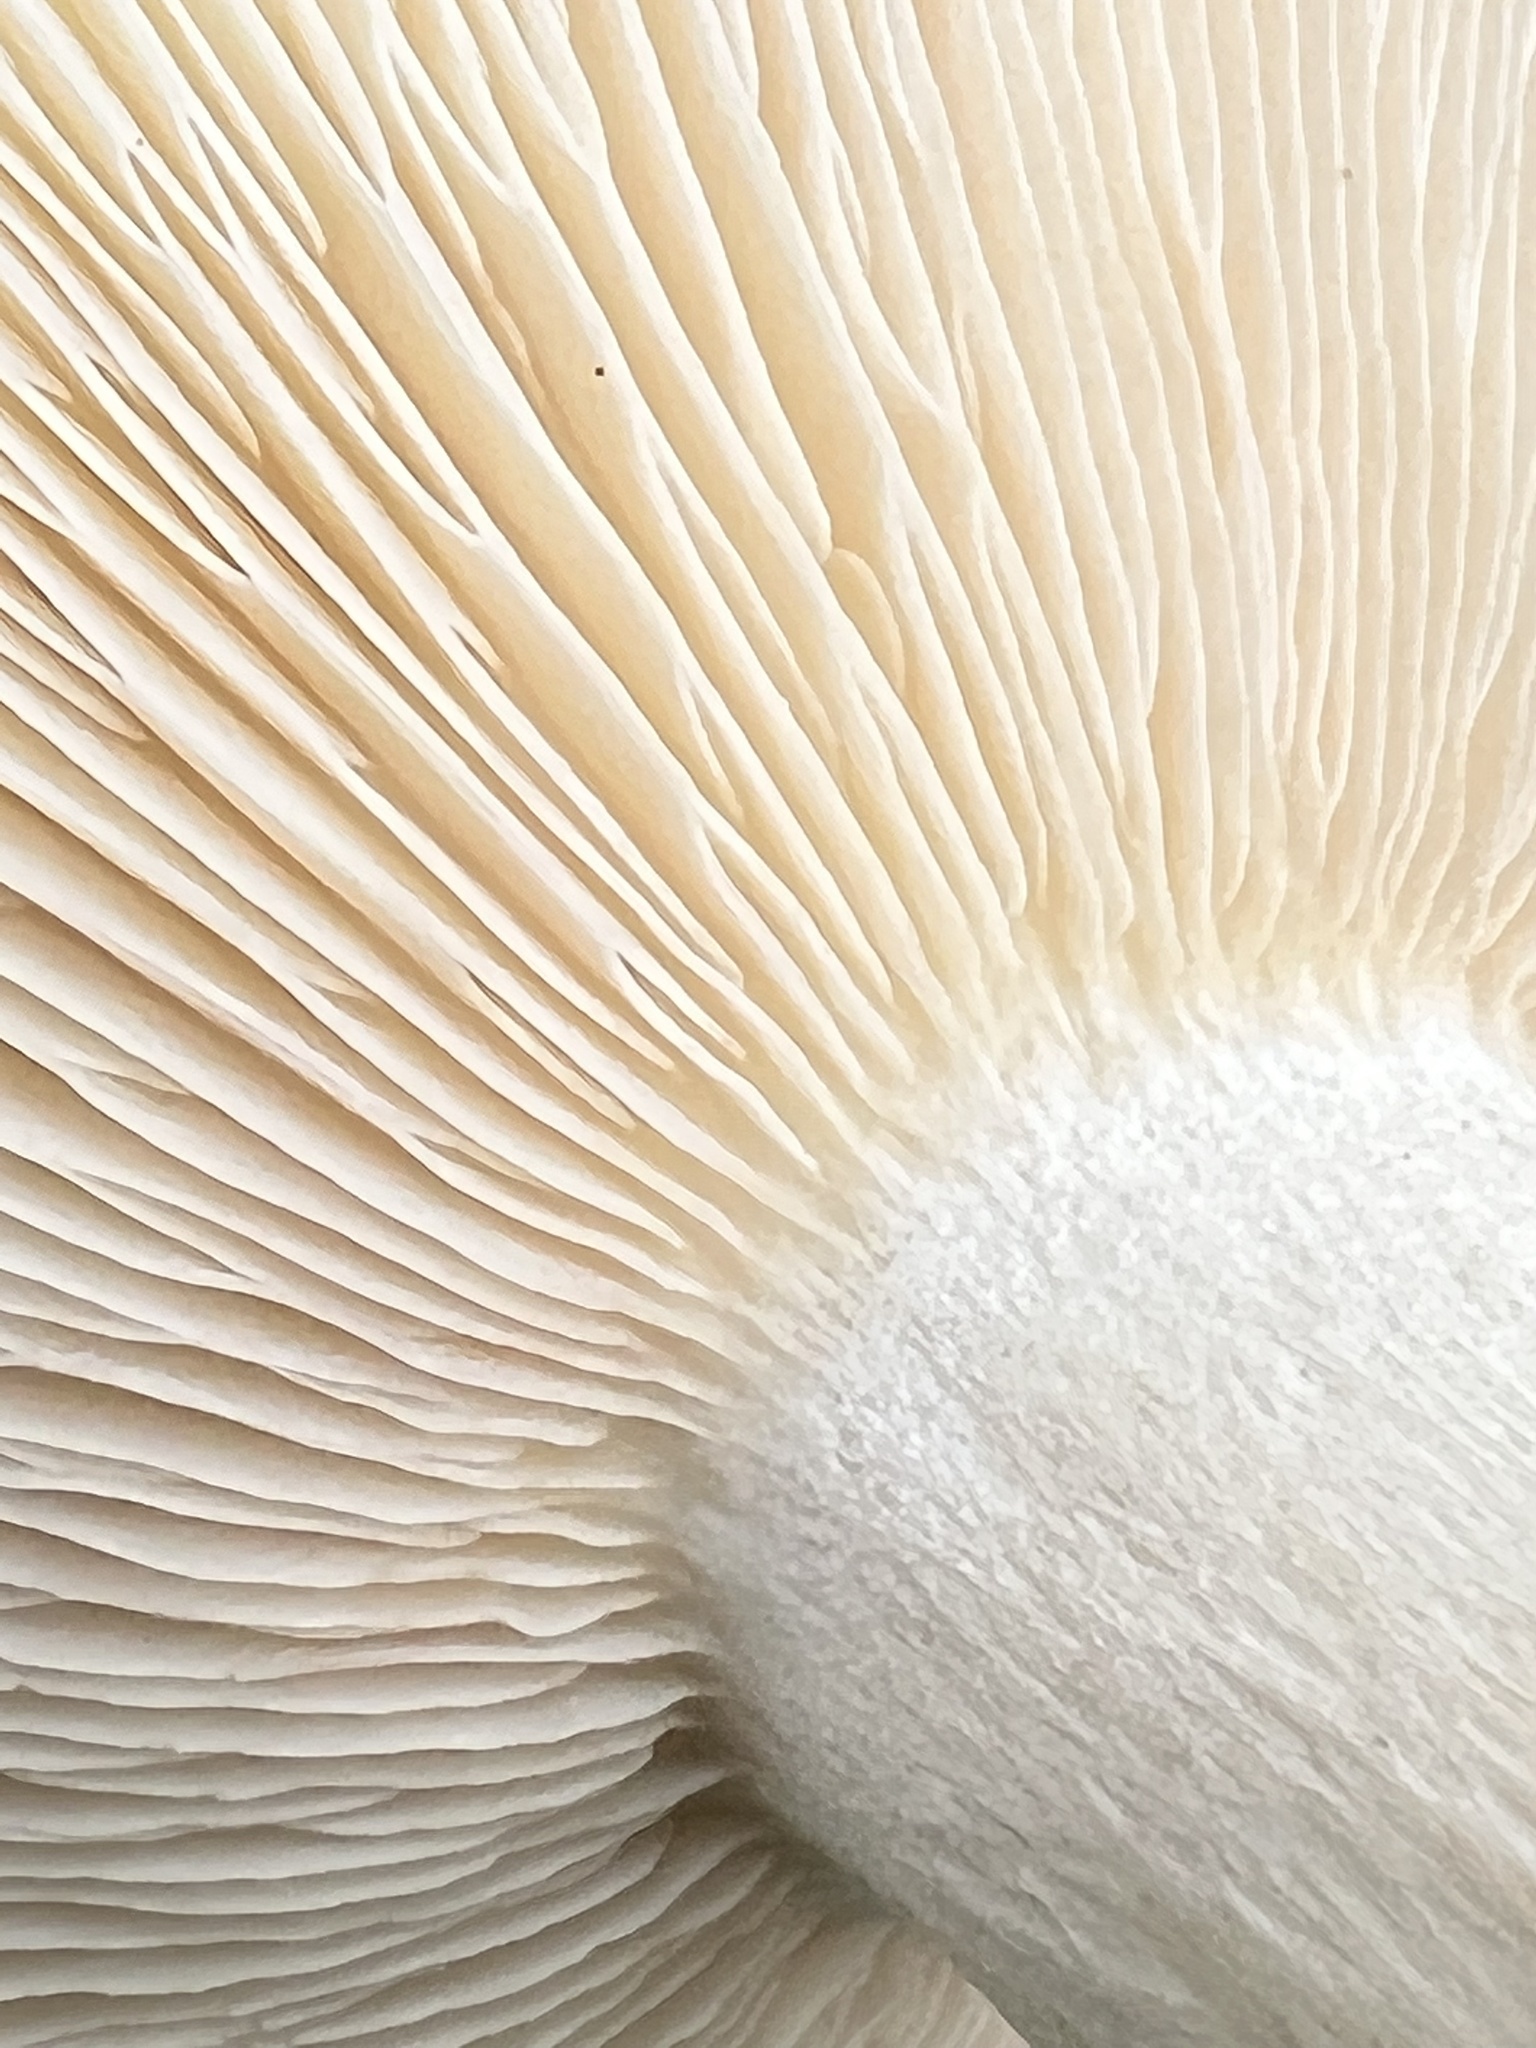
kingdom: Fungi
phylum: Basidiomycota
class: Agaricomycetes
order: Agaricales
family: Tricholomataceae
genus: Lepista
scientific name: Lepista subconnexa
